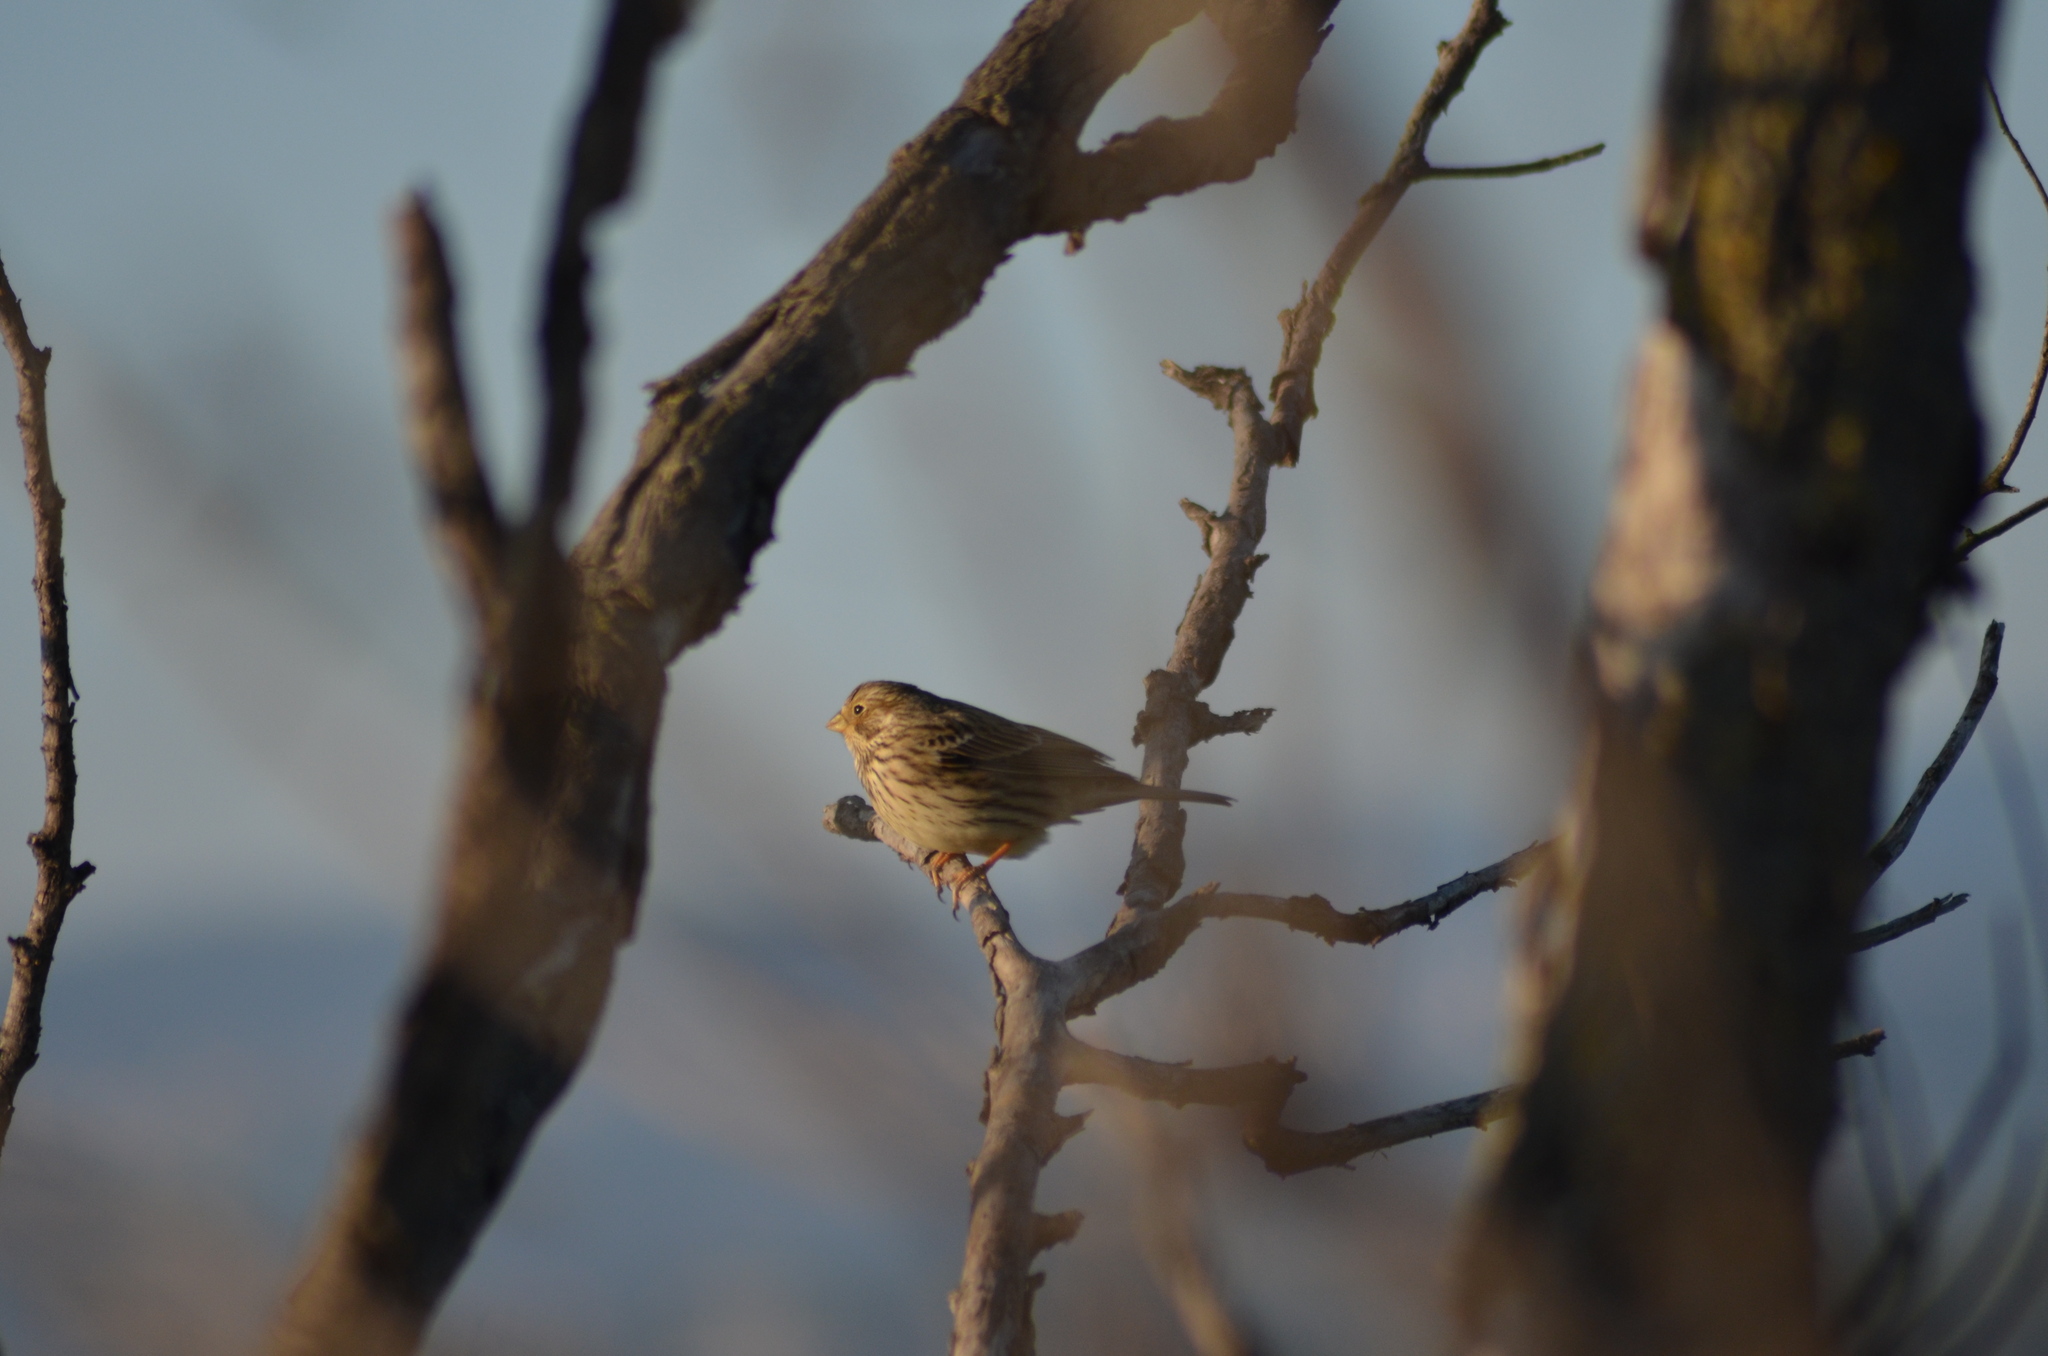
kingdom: Animalia
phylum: Chordata
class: Aves
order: Passeriformes
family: Emberizidae
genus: Emberiza
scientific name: Emberiza calandra
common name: Corn bunting
